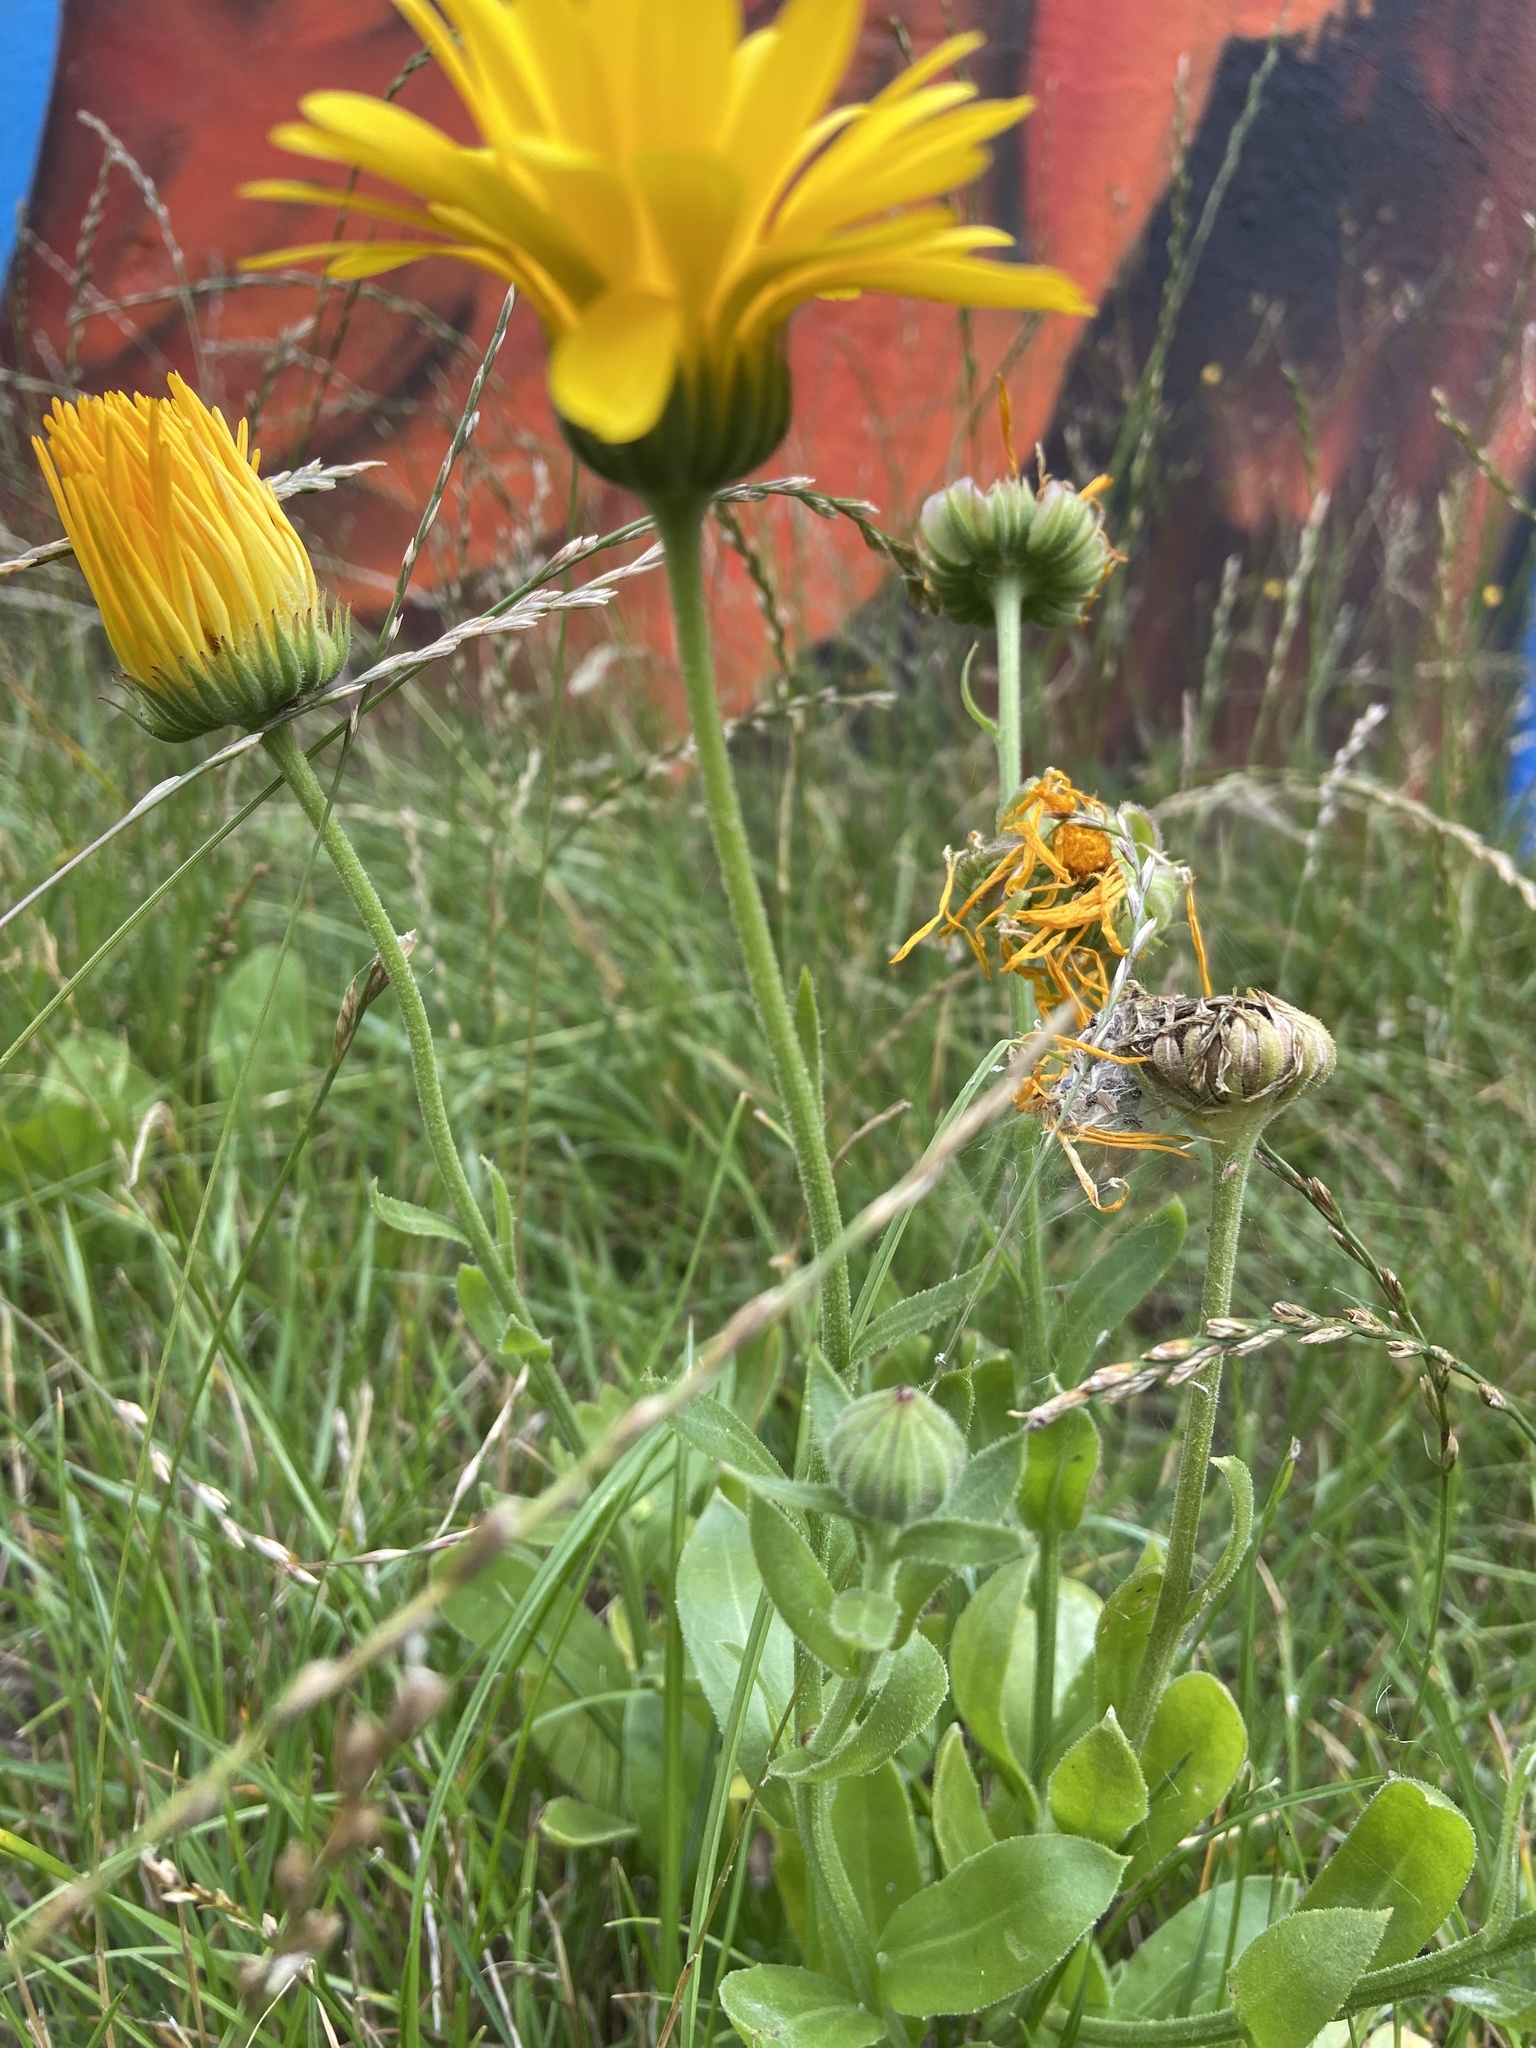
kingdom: Plantae
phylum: Tracheophyta
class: Magnoliopsida
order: Asterales
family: Asteraceae
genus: Calendula
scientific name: Calendula officinalis
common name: Pot marigold
